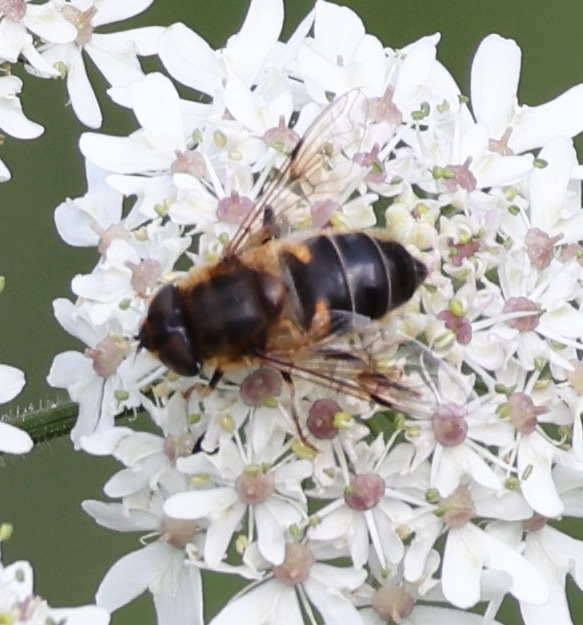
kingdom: Animalia
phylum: Arthropoda
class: Insecta
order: Diptera
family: Syrphidae
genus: Eristalis
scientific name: Eristalis pertinax
